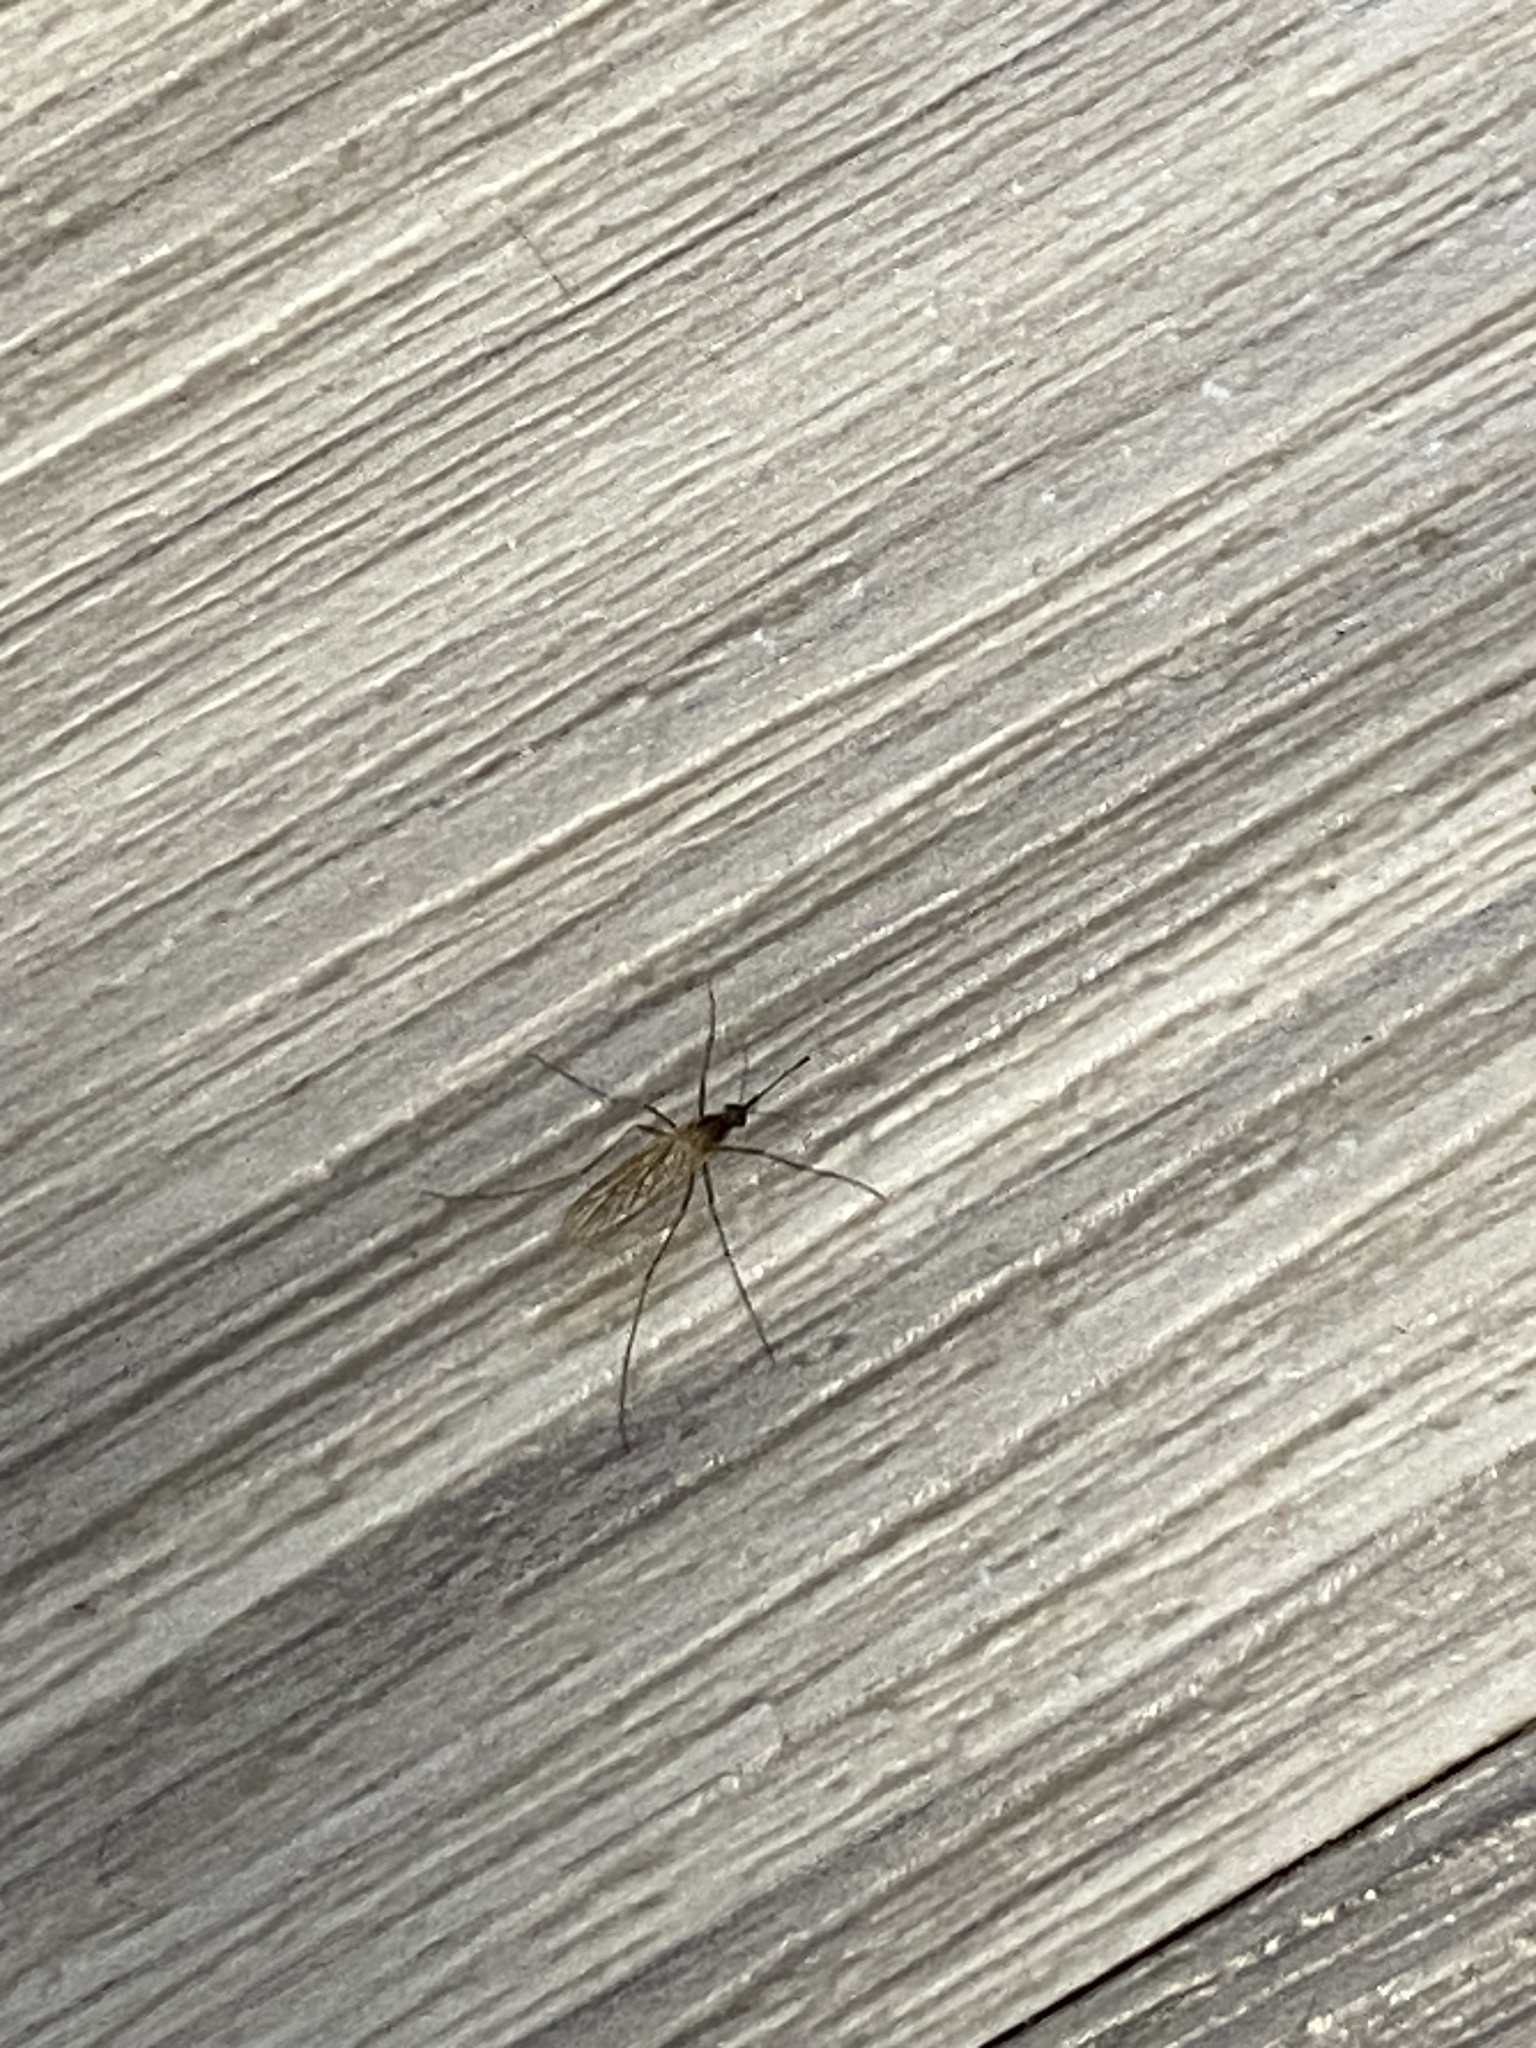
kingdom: Animalia
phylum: Arthropoda
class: Insecta
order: Diptera
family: Culicidae
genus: Culiseta
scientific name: Culiseta inornata
